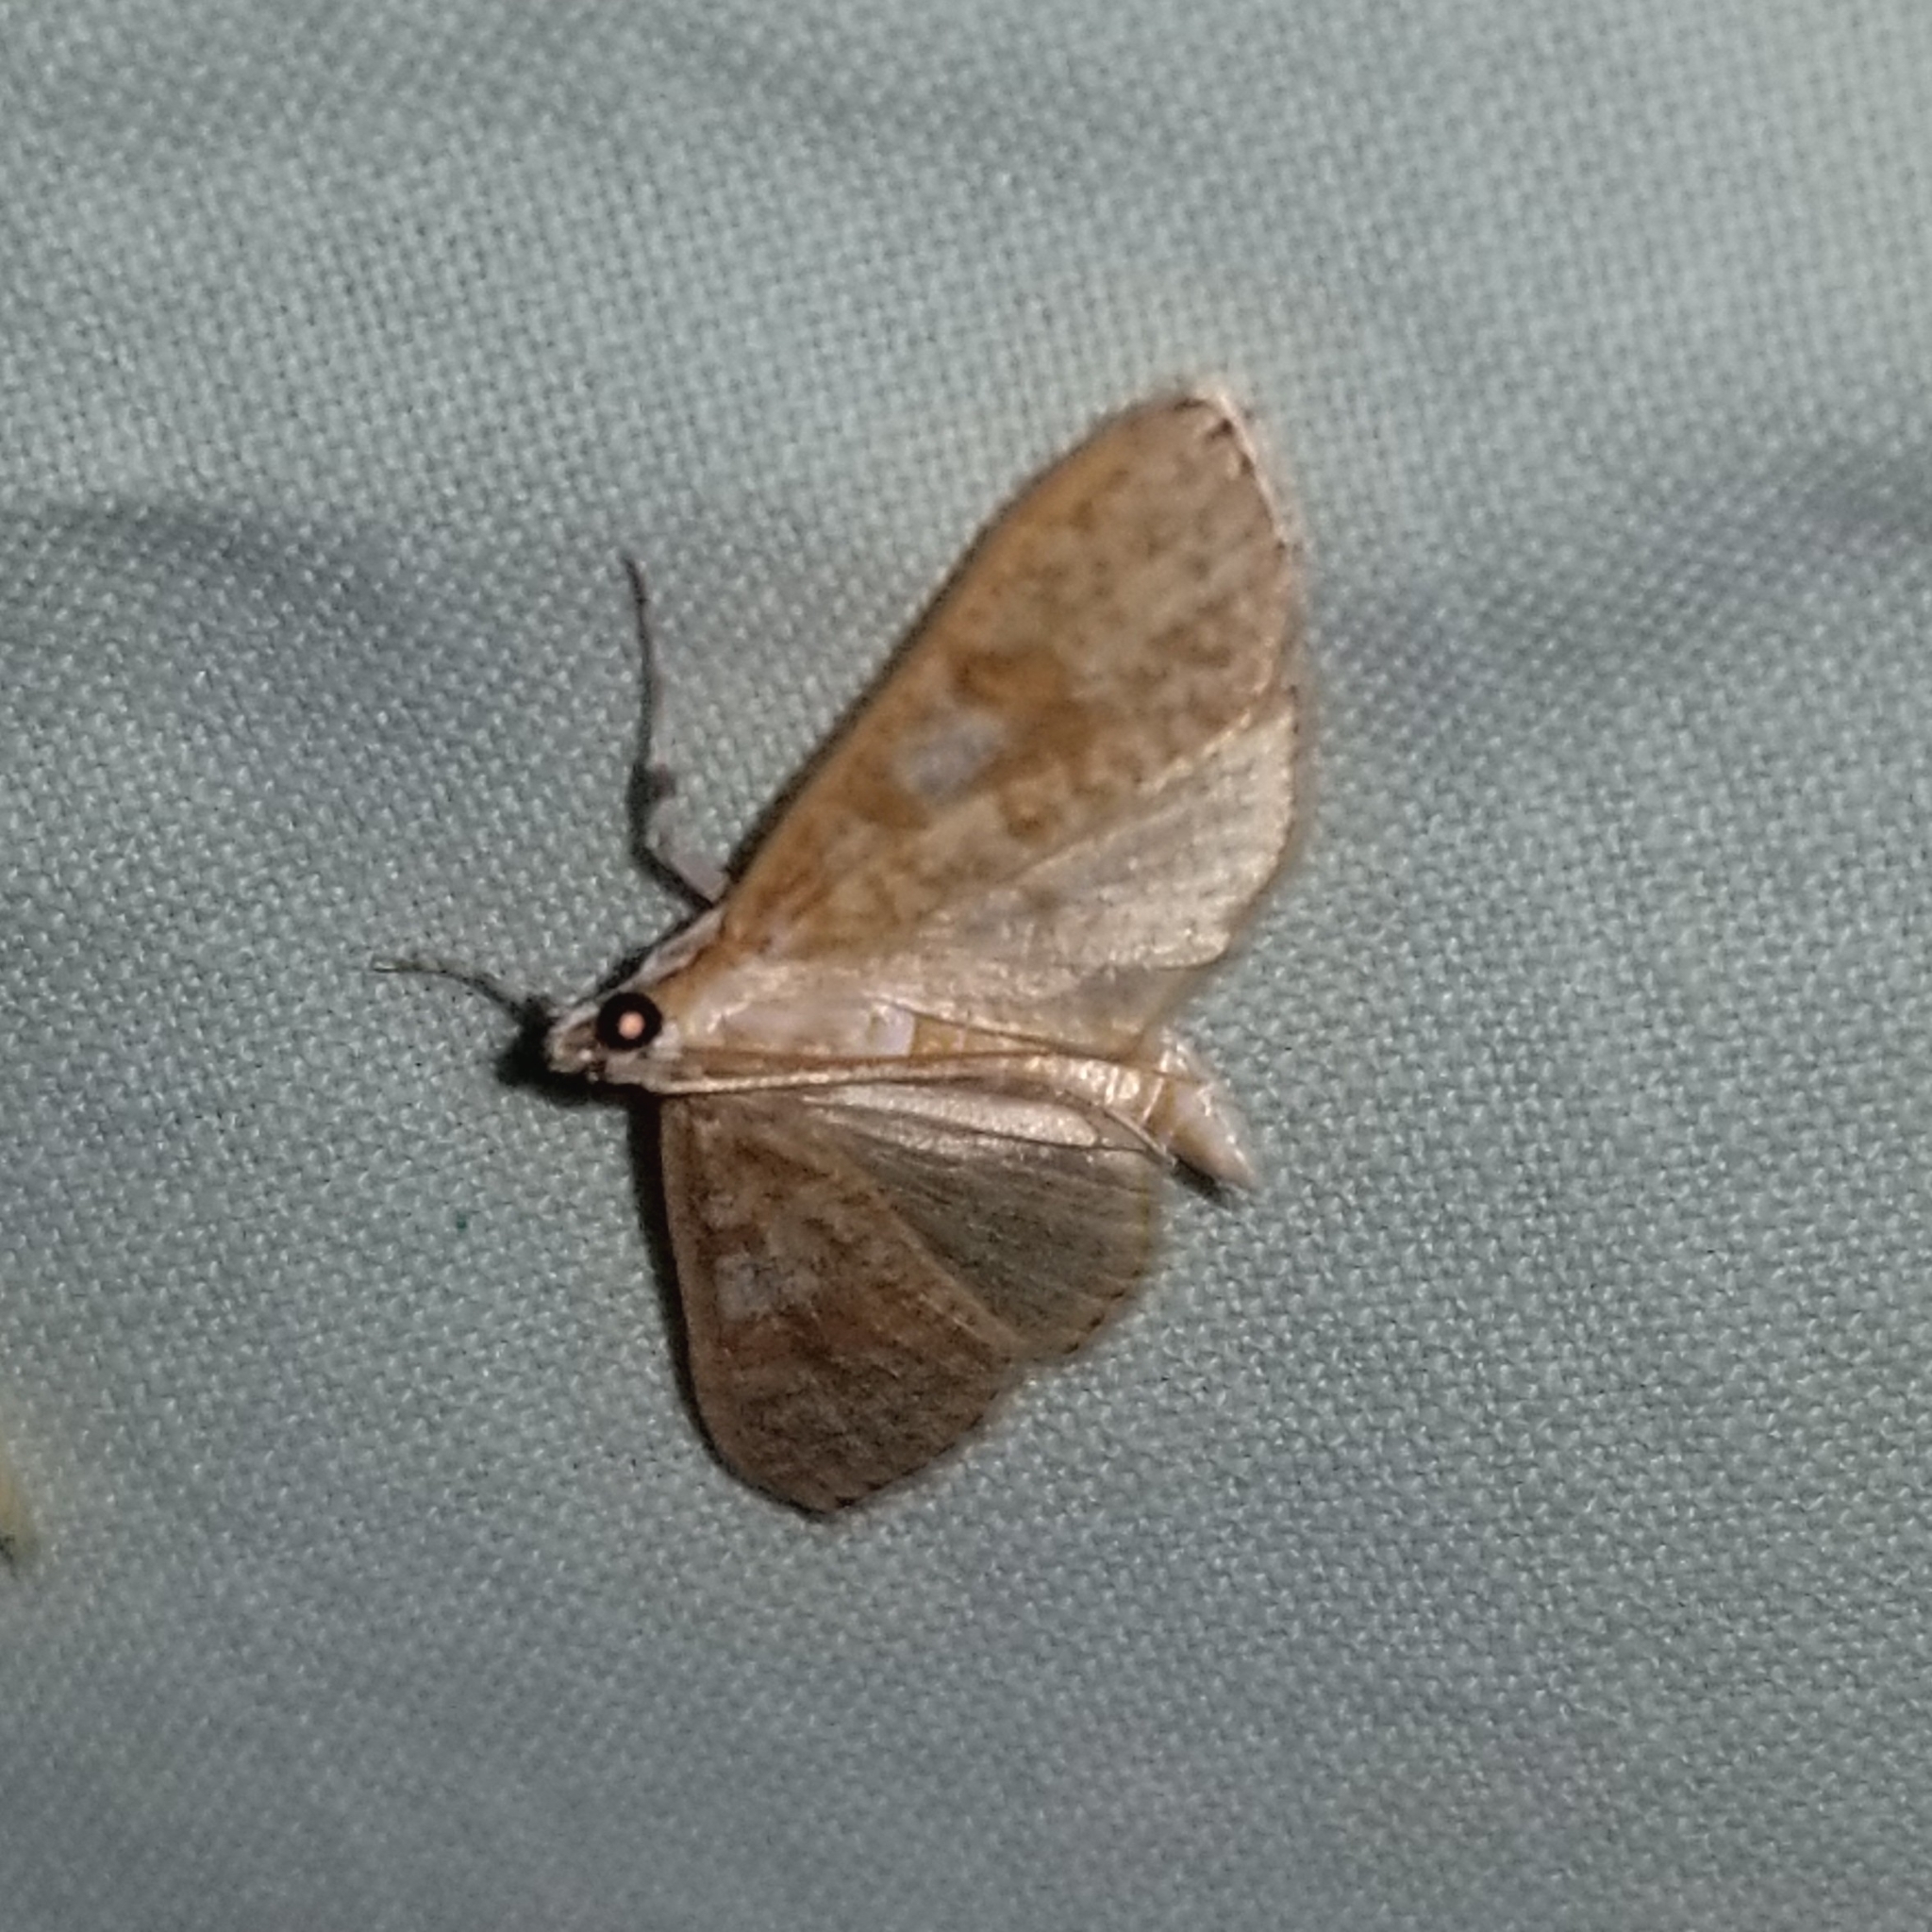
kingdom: Animalia
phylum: Arthropoda
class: Insecta
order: Lepidoptera
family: Crambidae
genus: Palpita
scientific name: Palpita freemanalis
